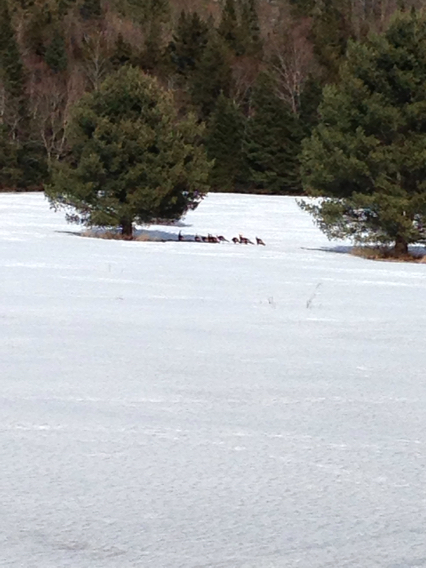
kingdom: Animalia
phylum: Chordata
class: Aves
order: Galliformes
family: Phasianidae
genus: Meleagris
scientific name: Meleagris gallopavo
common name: Wild turkey
